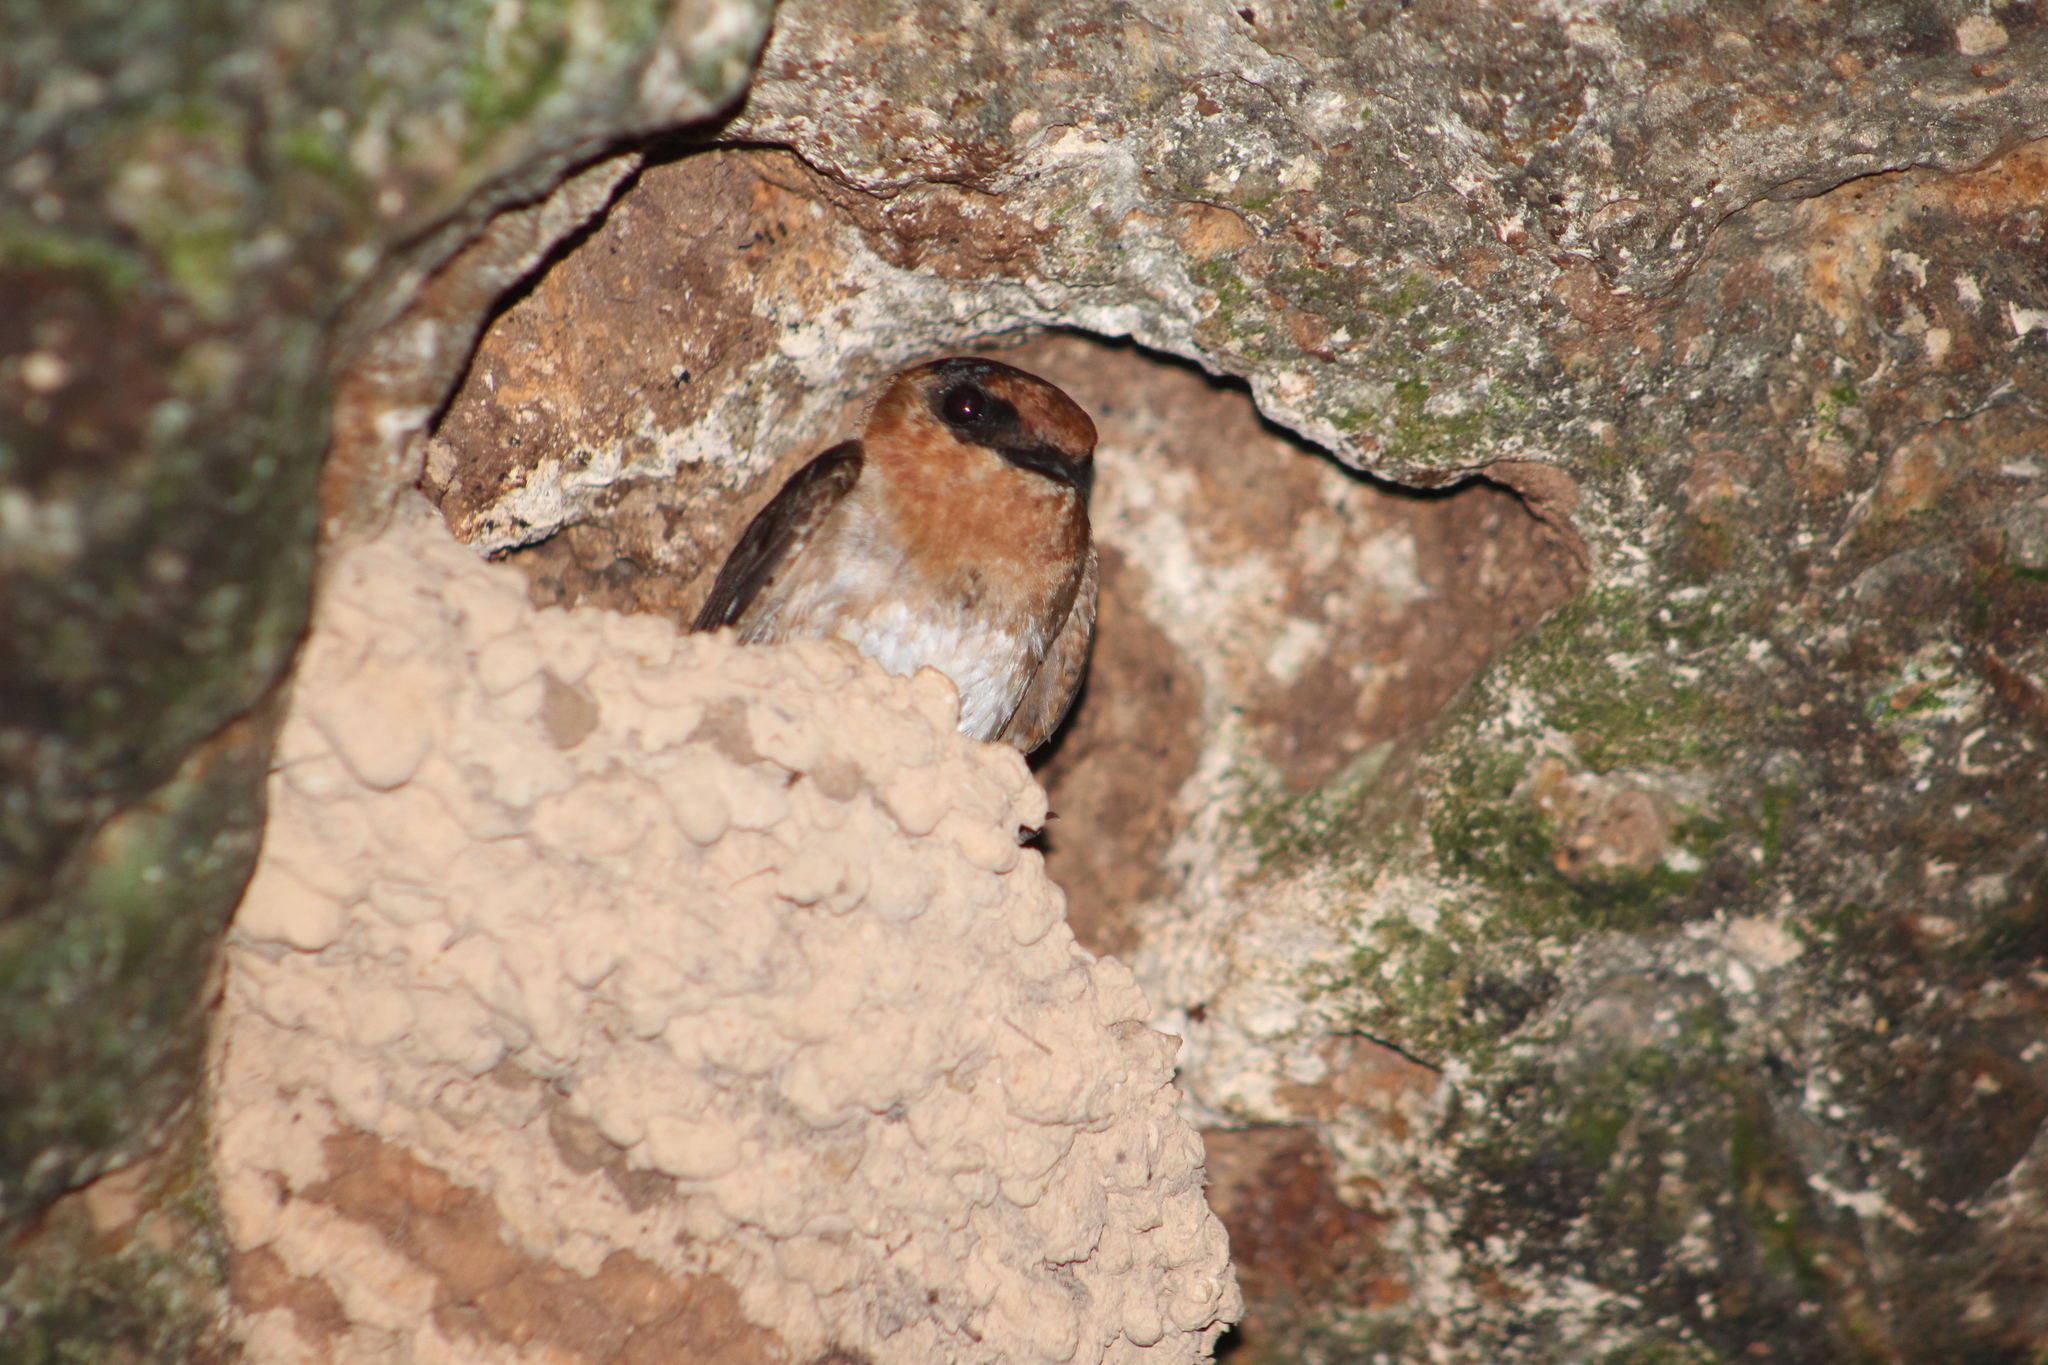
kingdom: Animalia
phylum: Chordata
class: Aves
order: Passeriformes
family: Hirundinidae
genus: Petrochelidon
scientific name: Petrochelidon fulva
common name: Cave swallow
